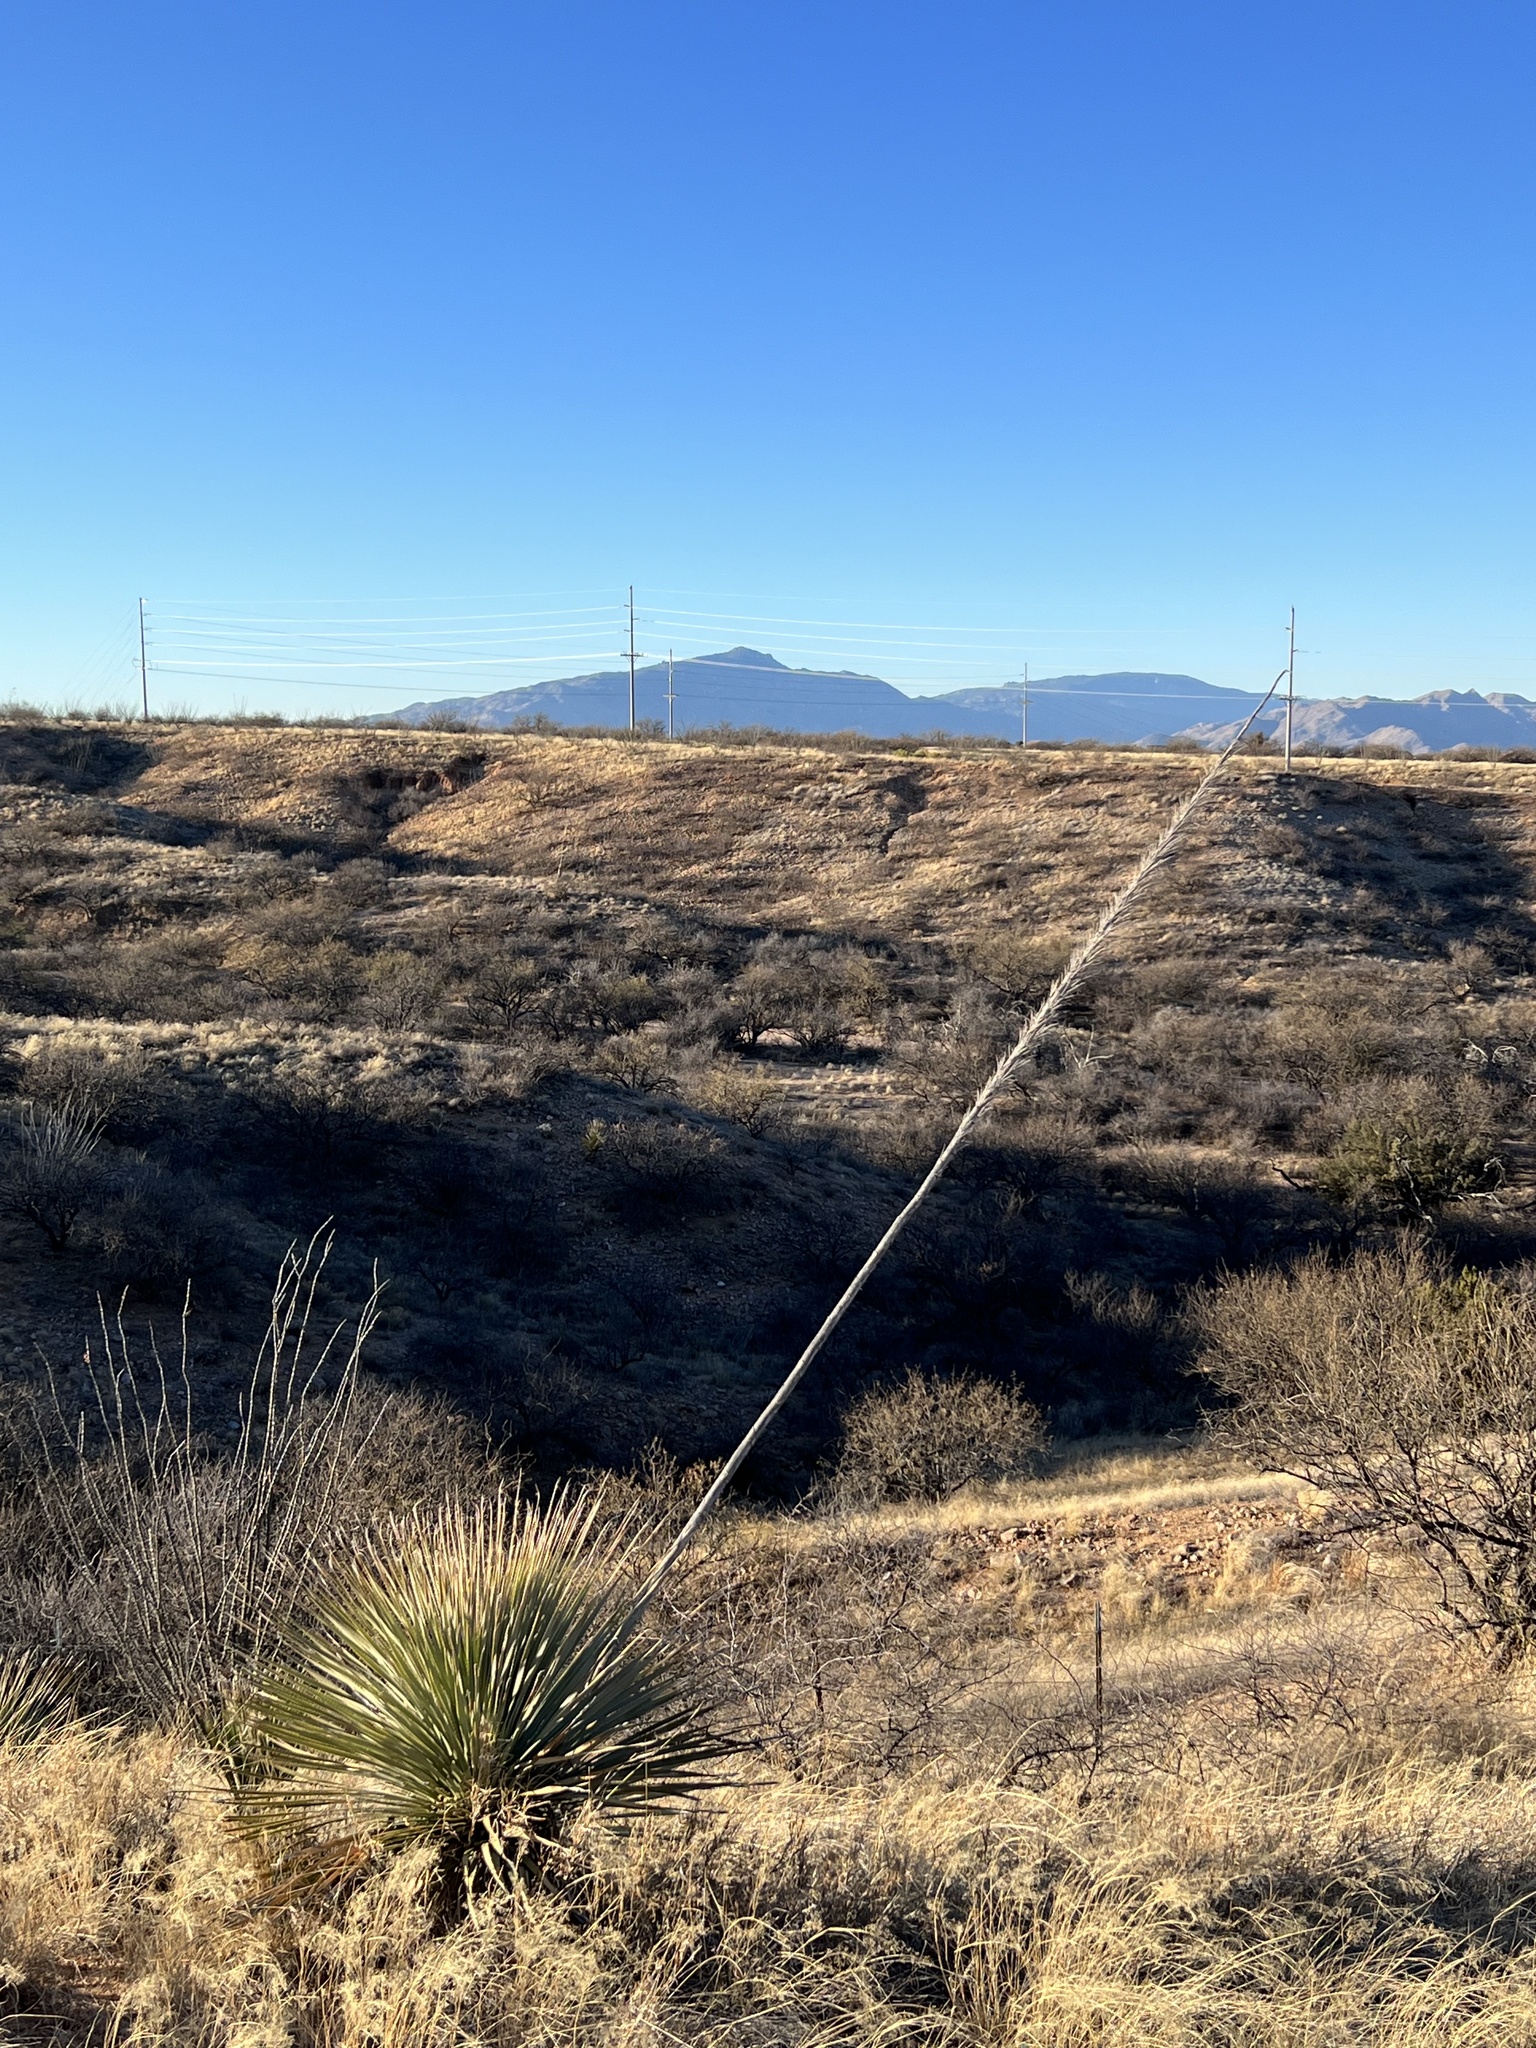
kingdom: Plantae
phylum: Tracheophyta
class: Liliopsida
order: Asparagales
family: Asparagaceae
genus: Dasylirion
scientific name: Dasylirion wheeleri
